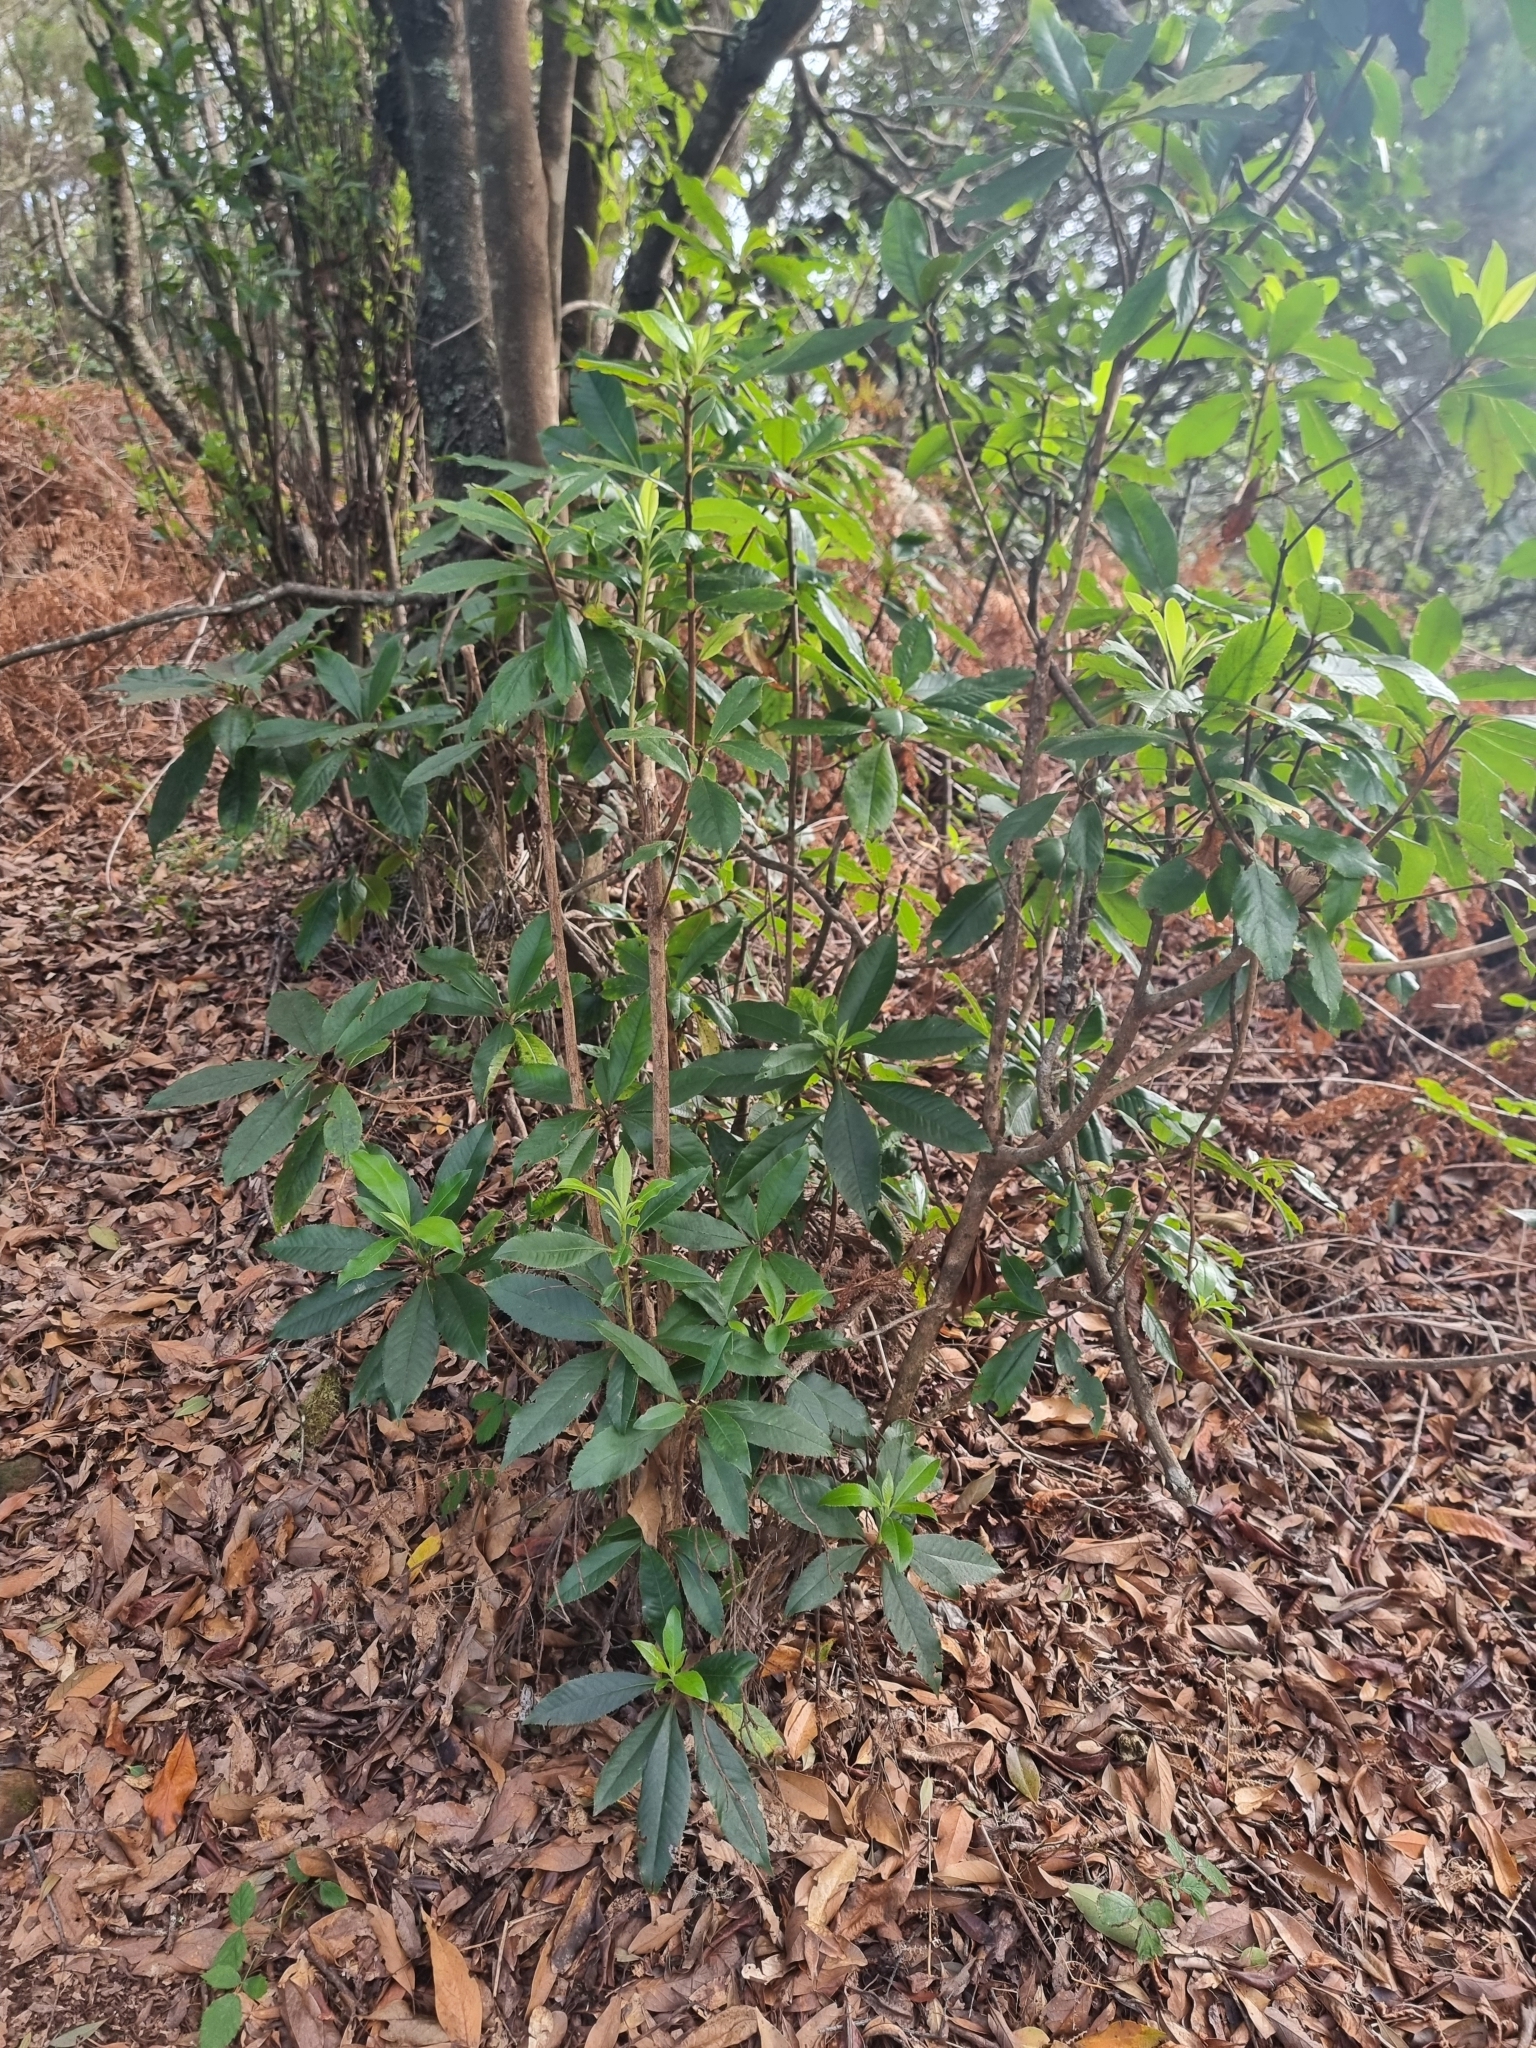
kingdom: Plantae
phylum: Tracheophyta
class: Magnoliopsida
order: Ericales
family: Clethraceae
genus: Clethra
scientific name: Clethra arborea
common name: Lily-of-the-valley-tree
